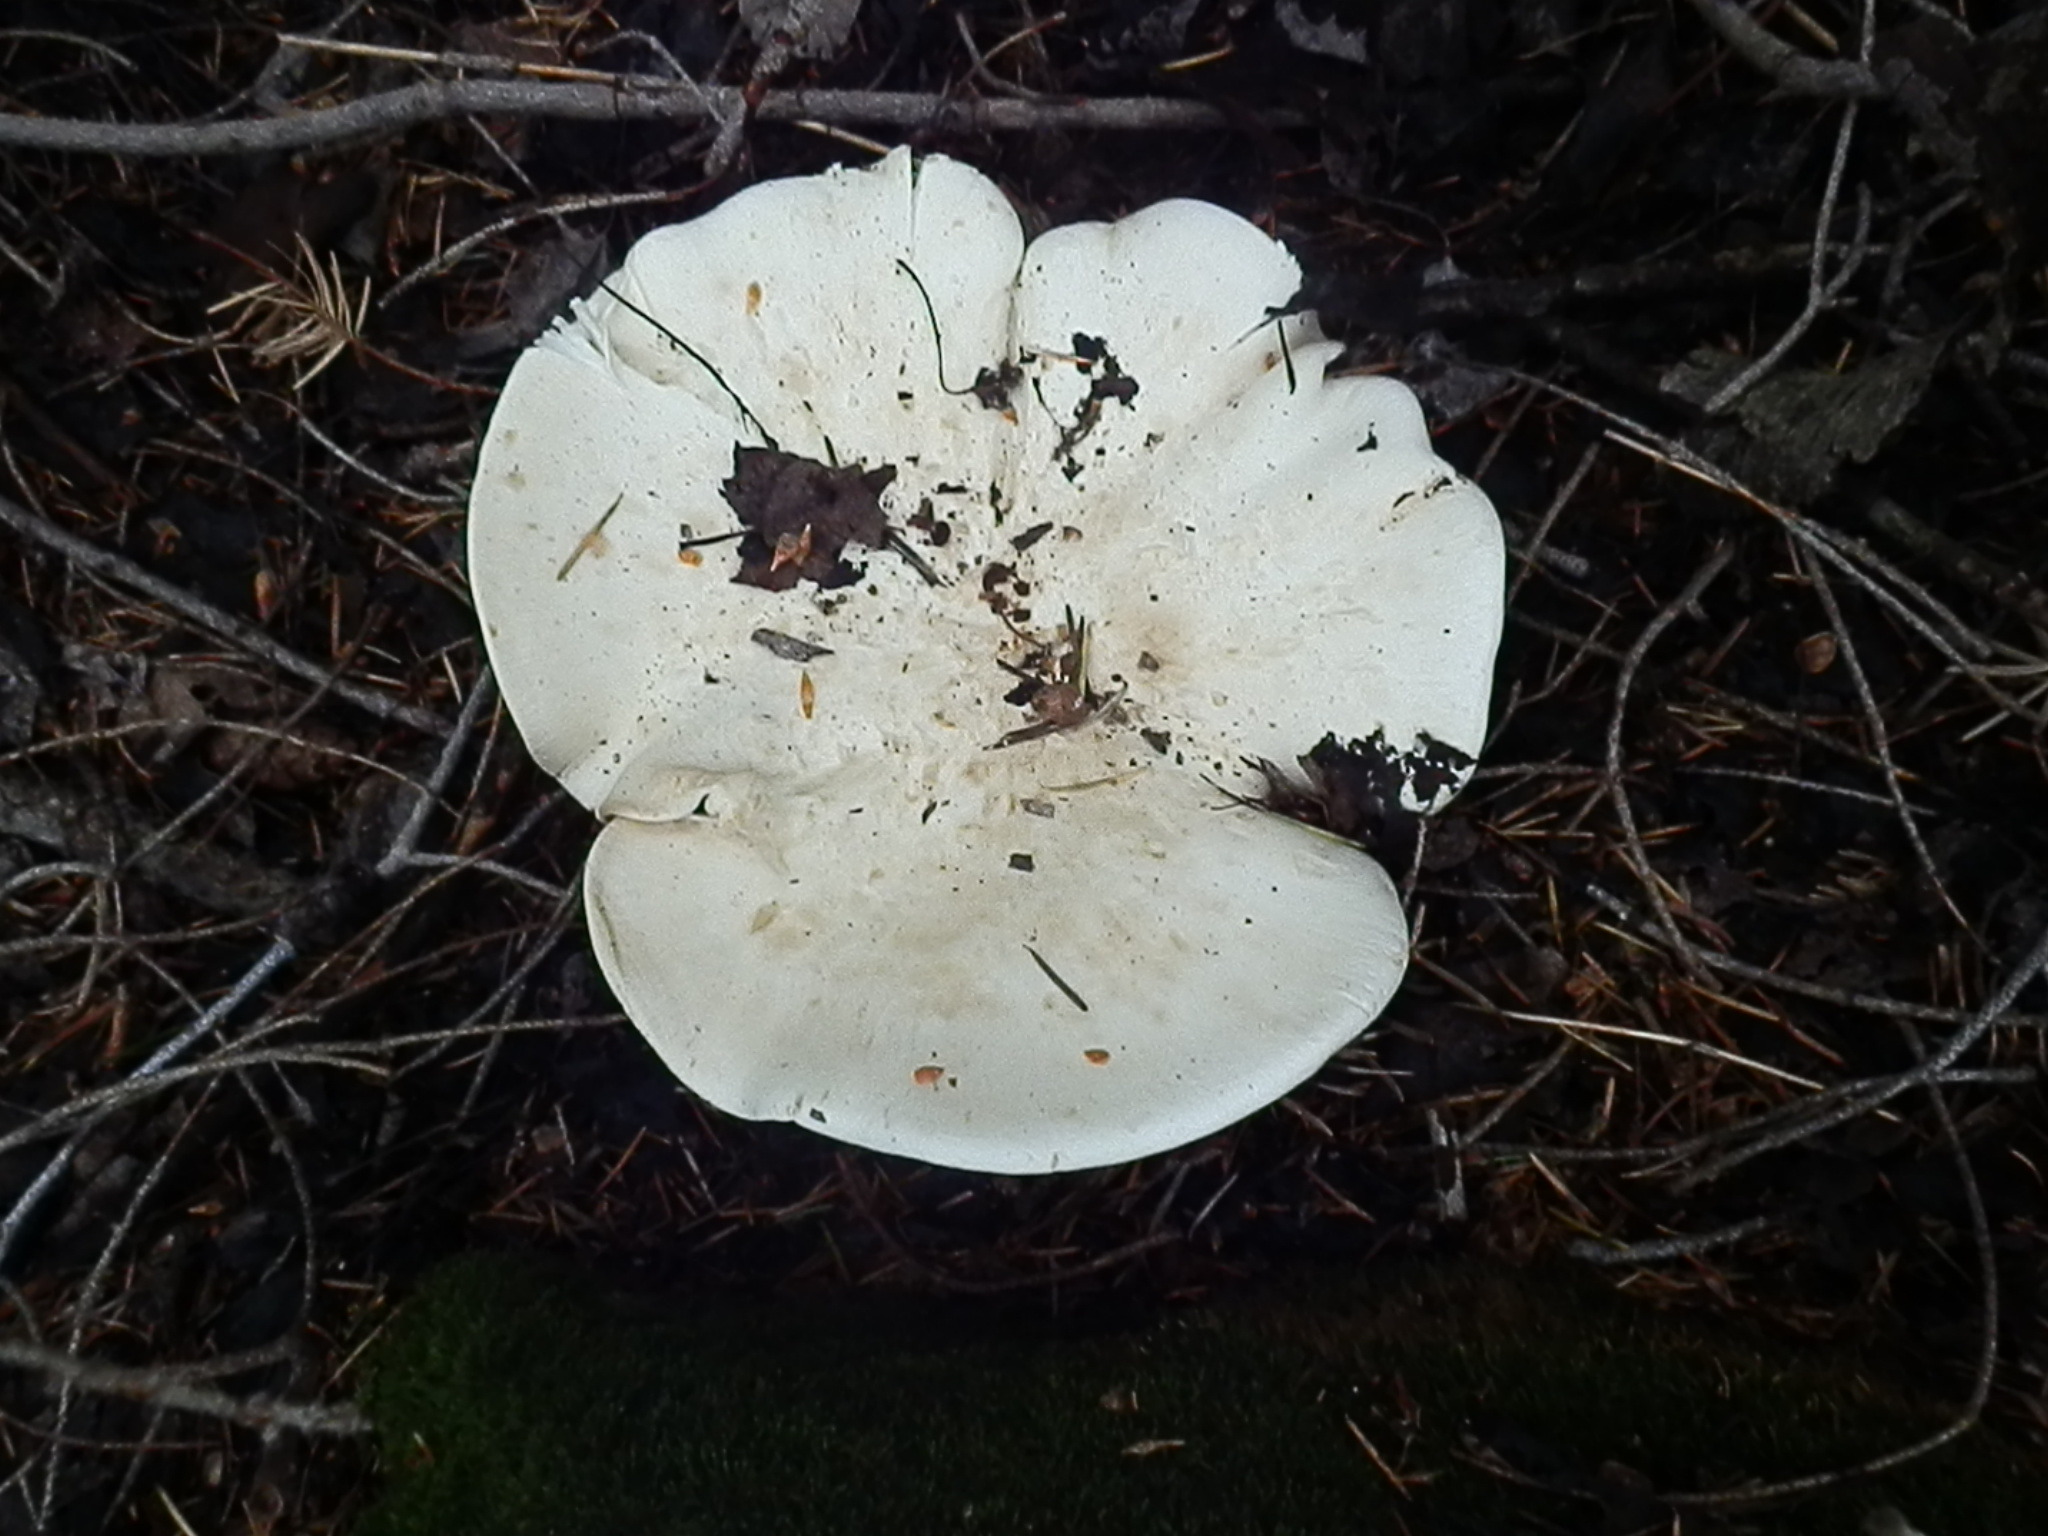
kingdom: Fungi
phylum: Basidiomycota
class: Agaricomycetes
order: Agaricales
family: Tricholomataceae
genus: Aspropaxillus
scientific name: Aspropaxillus giganteus
